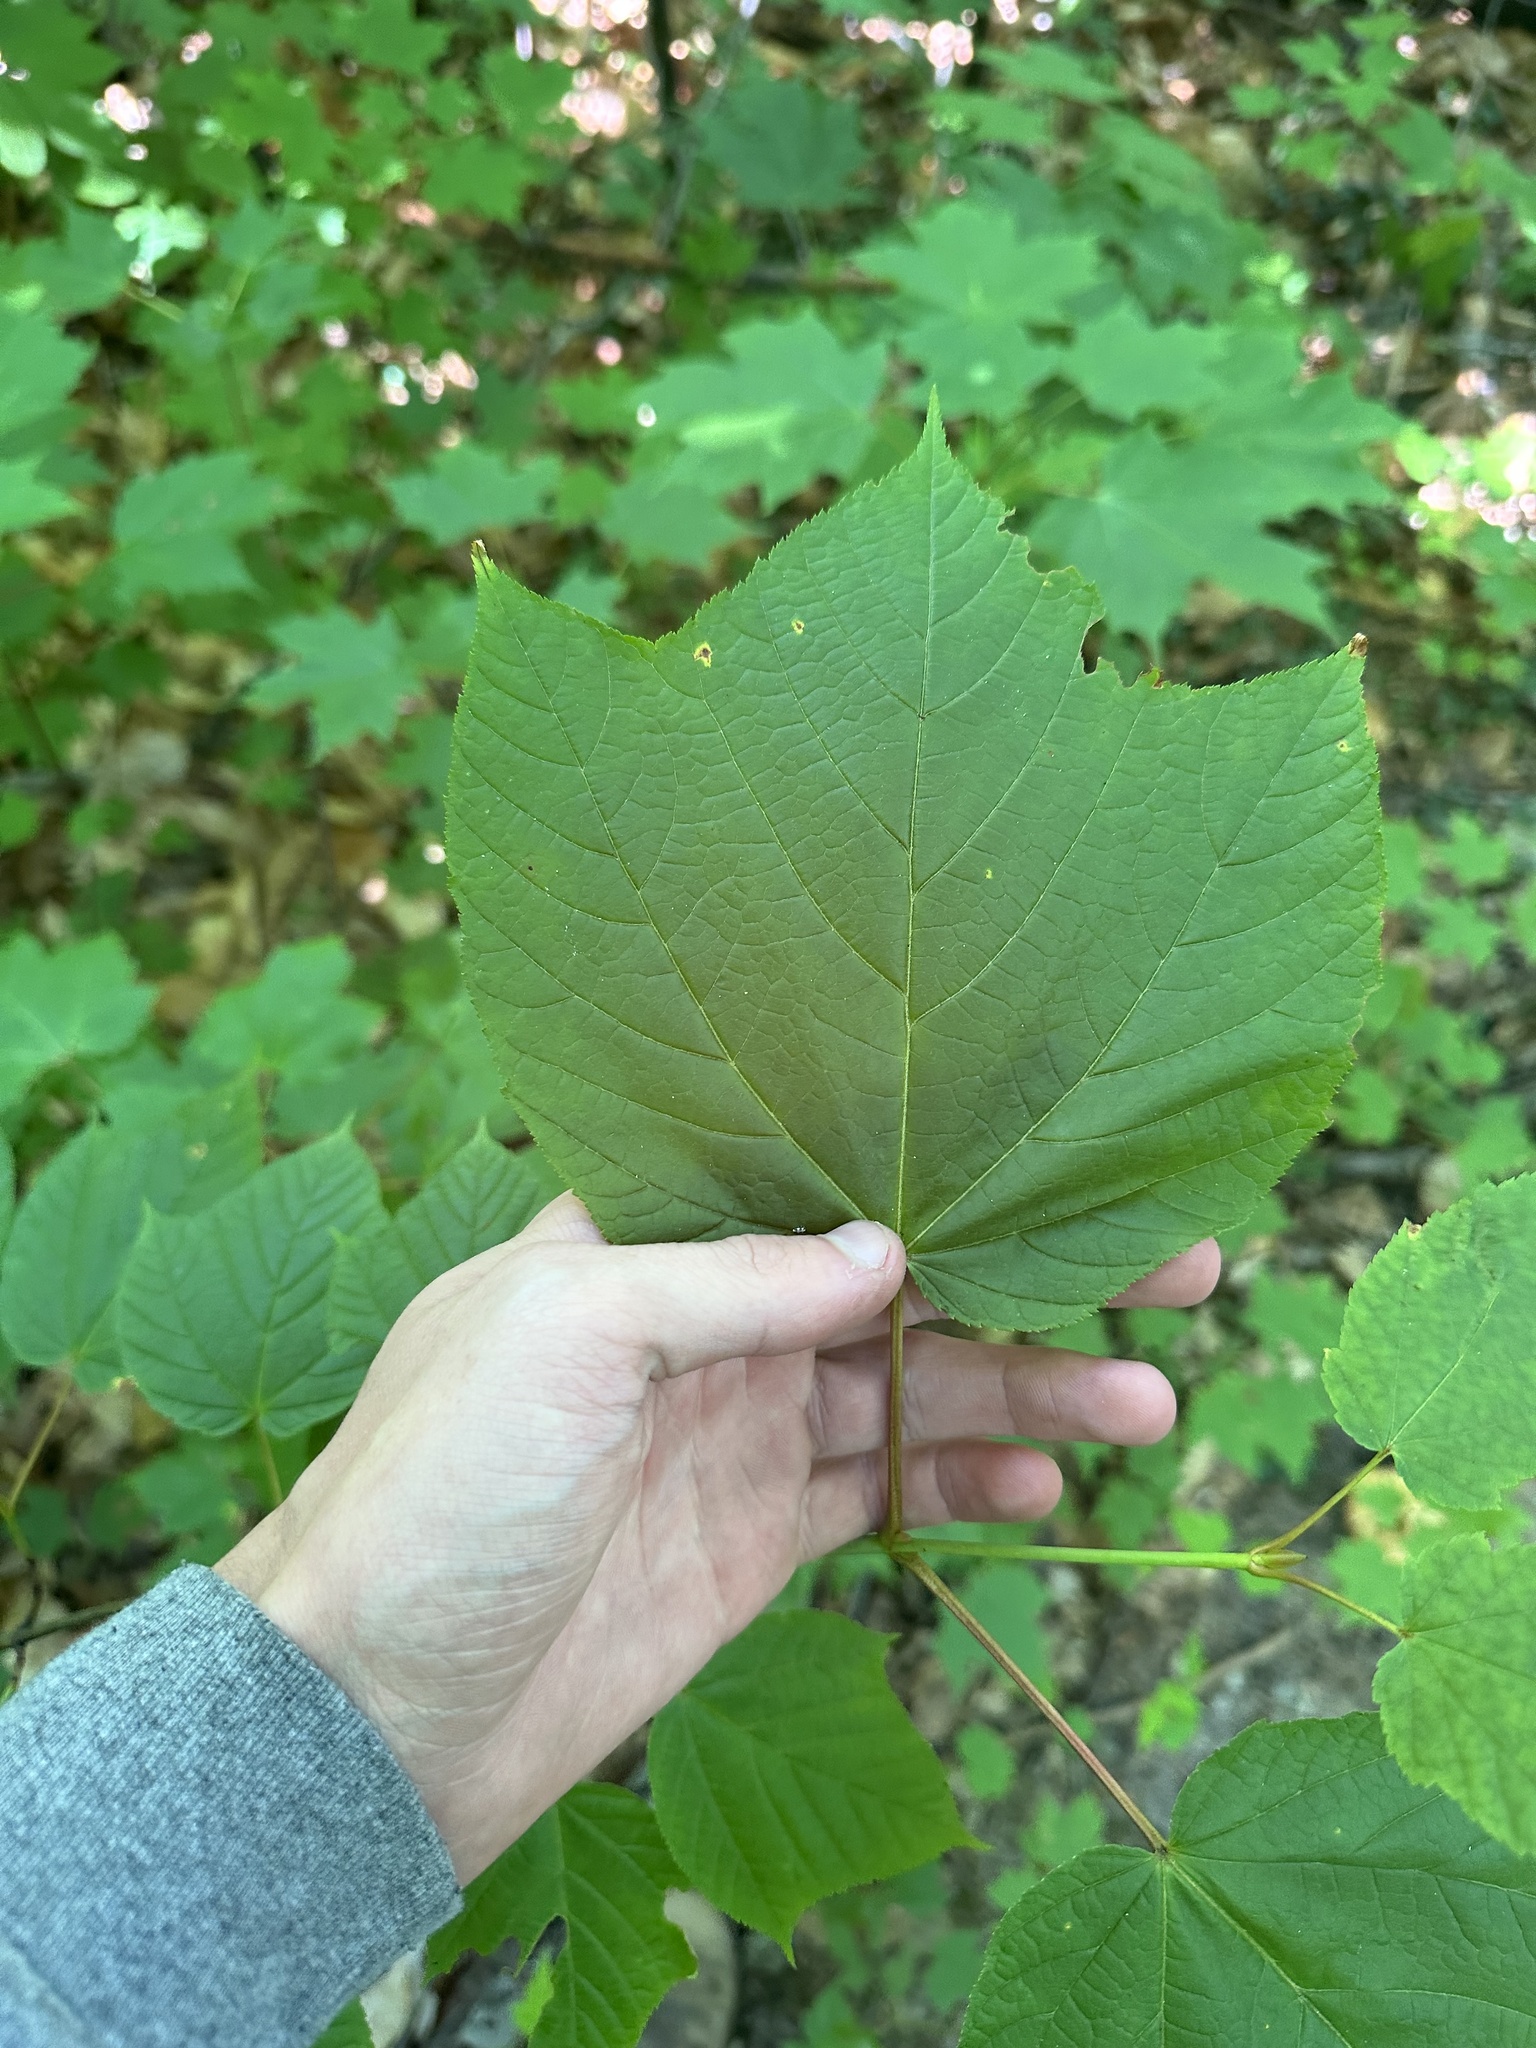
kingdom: Plantae
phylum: Tracheophyta
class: Magnoliopsida
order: Sapindales
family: Sapindaceae
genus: Acer
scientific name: Acer pensylvanicum
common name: Moosewood
